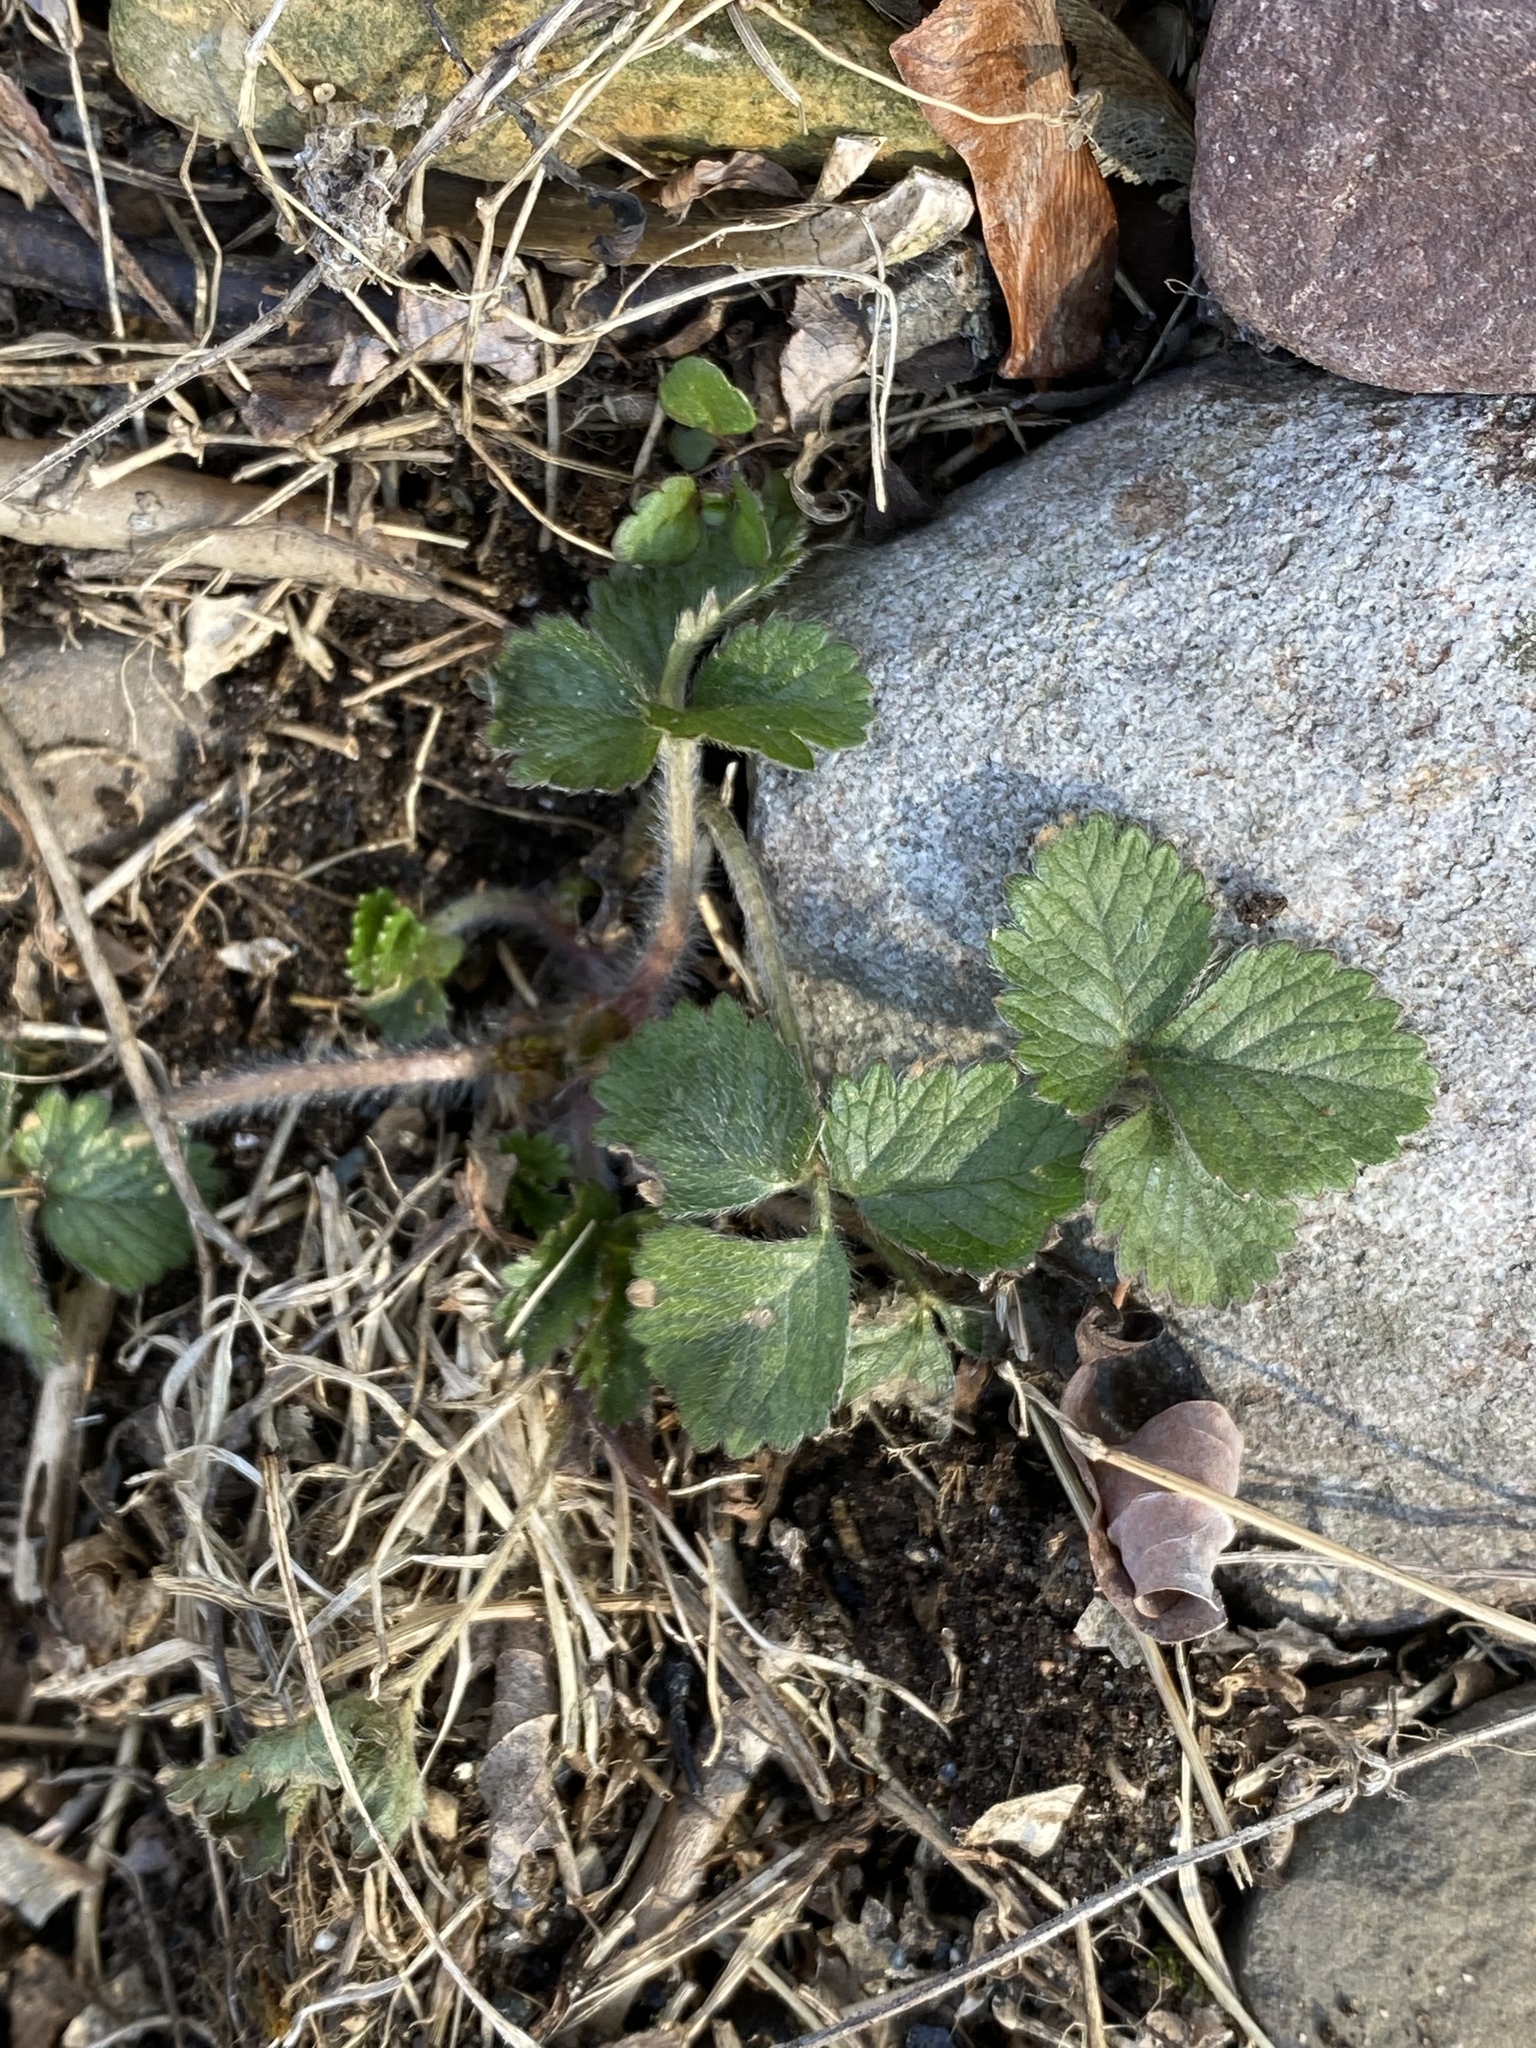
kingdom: Plantae
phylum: Tracheophyta
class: Magnoliopsida
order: Rosales
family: Rosaceae
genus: Potentilla
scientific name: Potentilla indica
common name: Yellow-flowered strawberry
